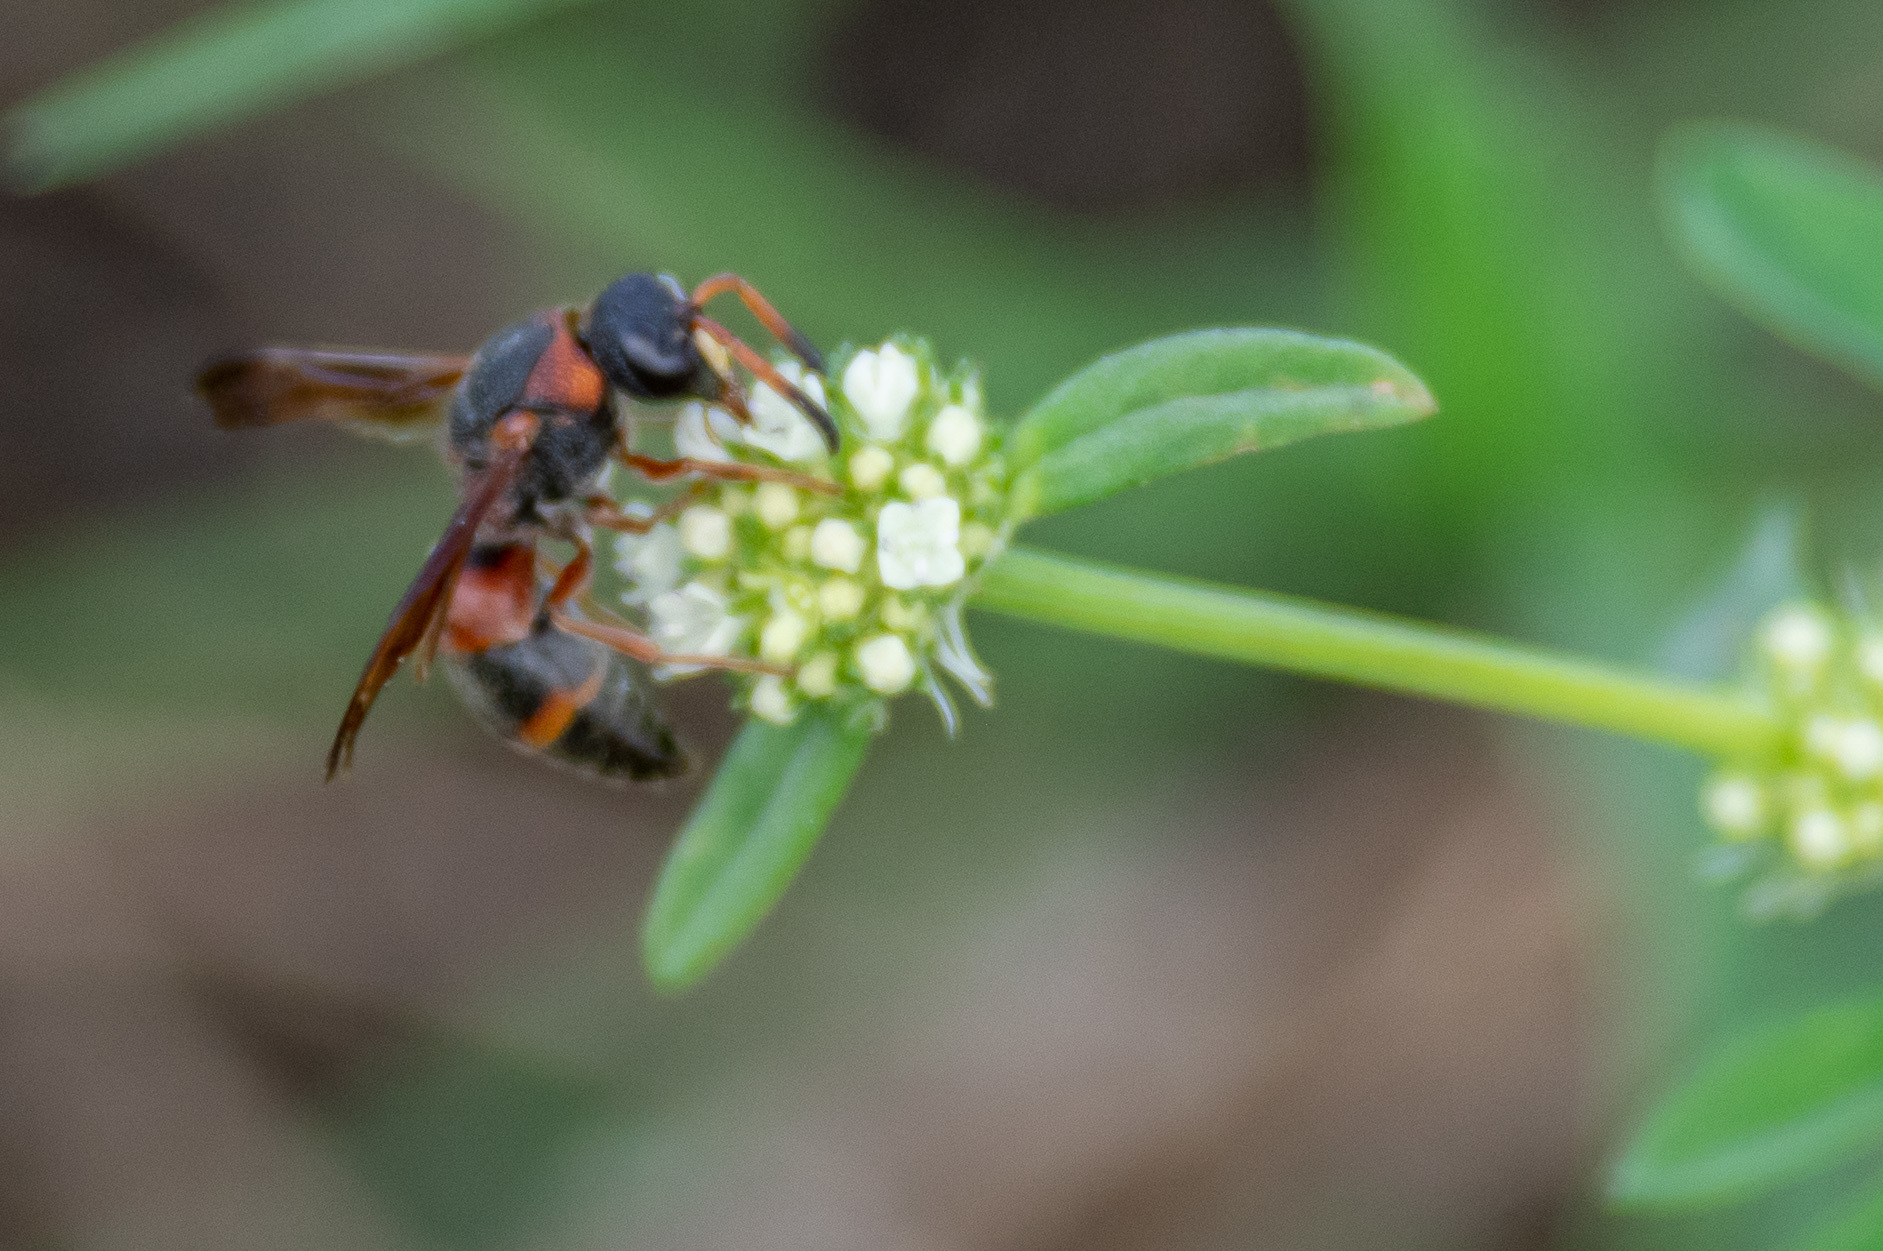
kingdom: Animalia
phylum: Arthropoda
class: Insecta
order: Hymenoptera
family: Eumenidae
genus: Pachodynerus
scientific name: Pachodynerus erynnis
